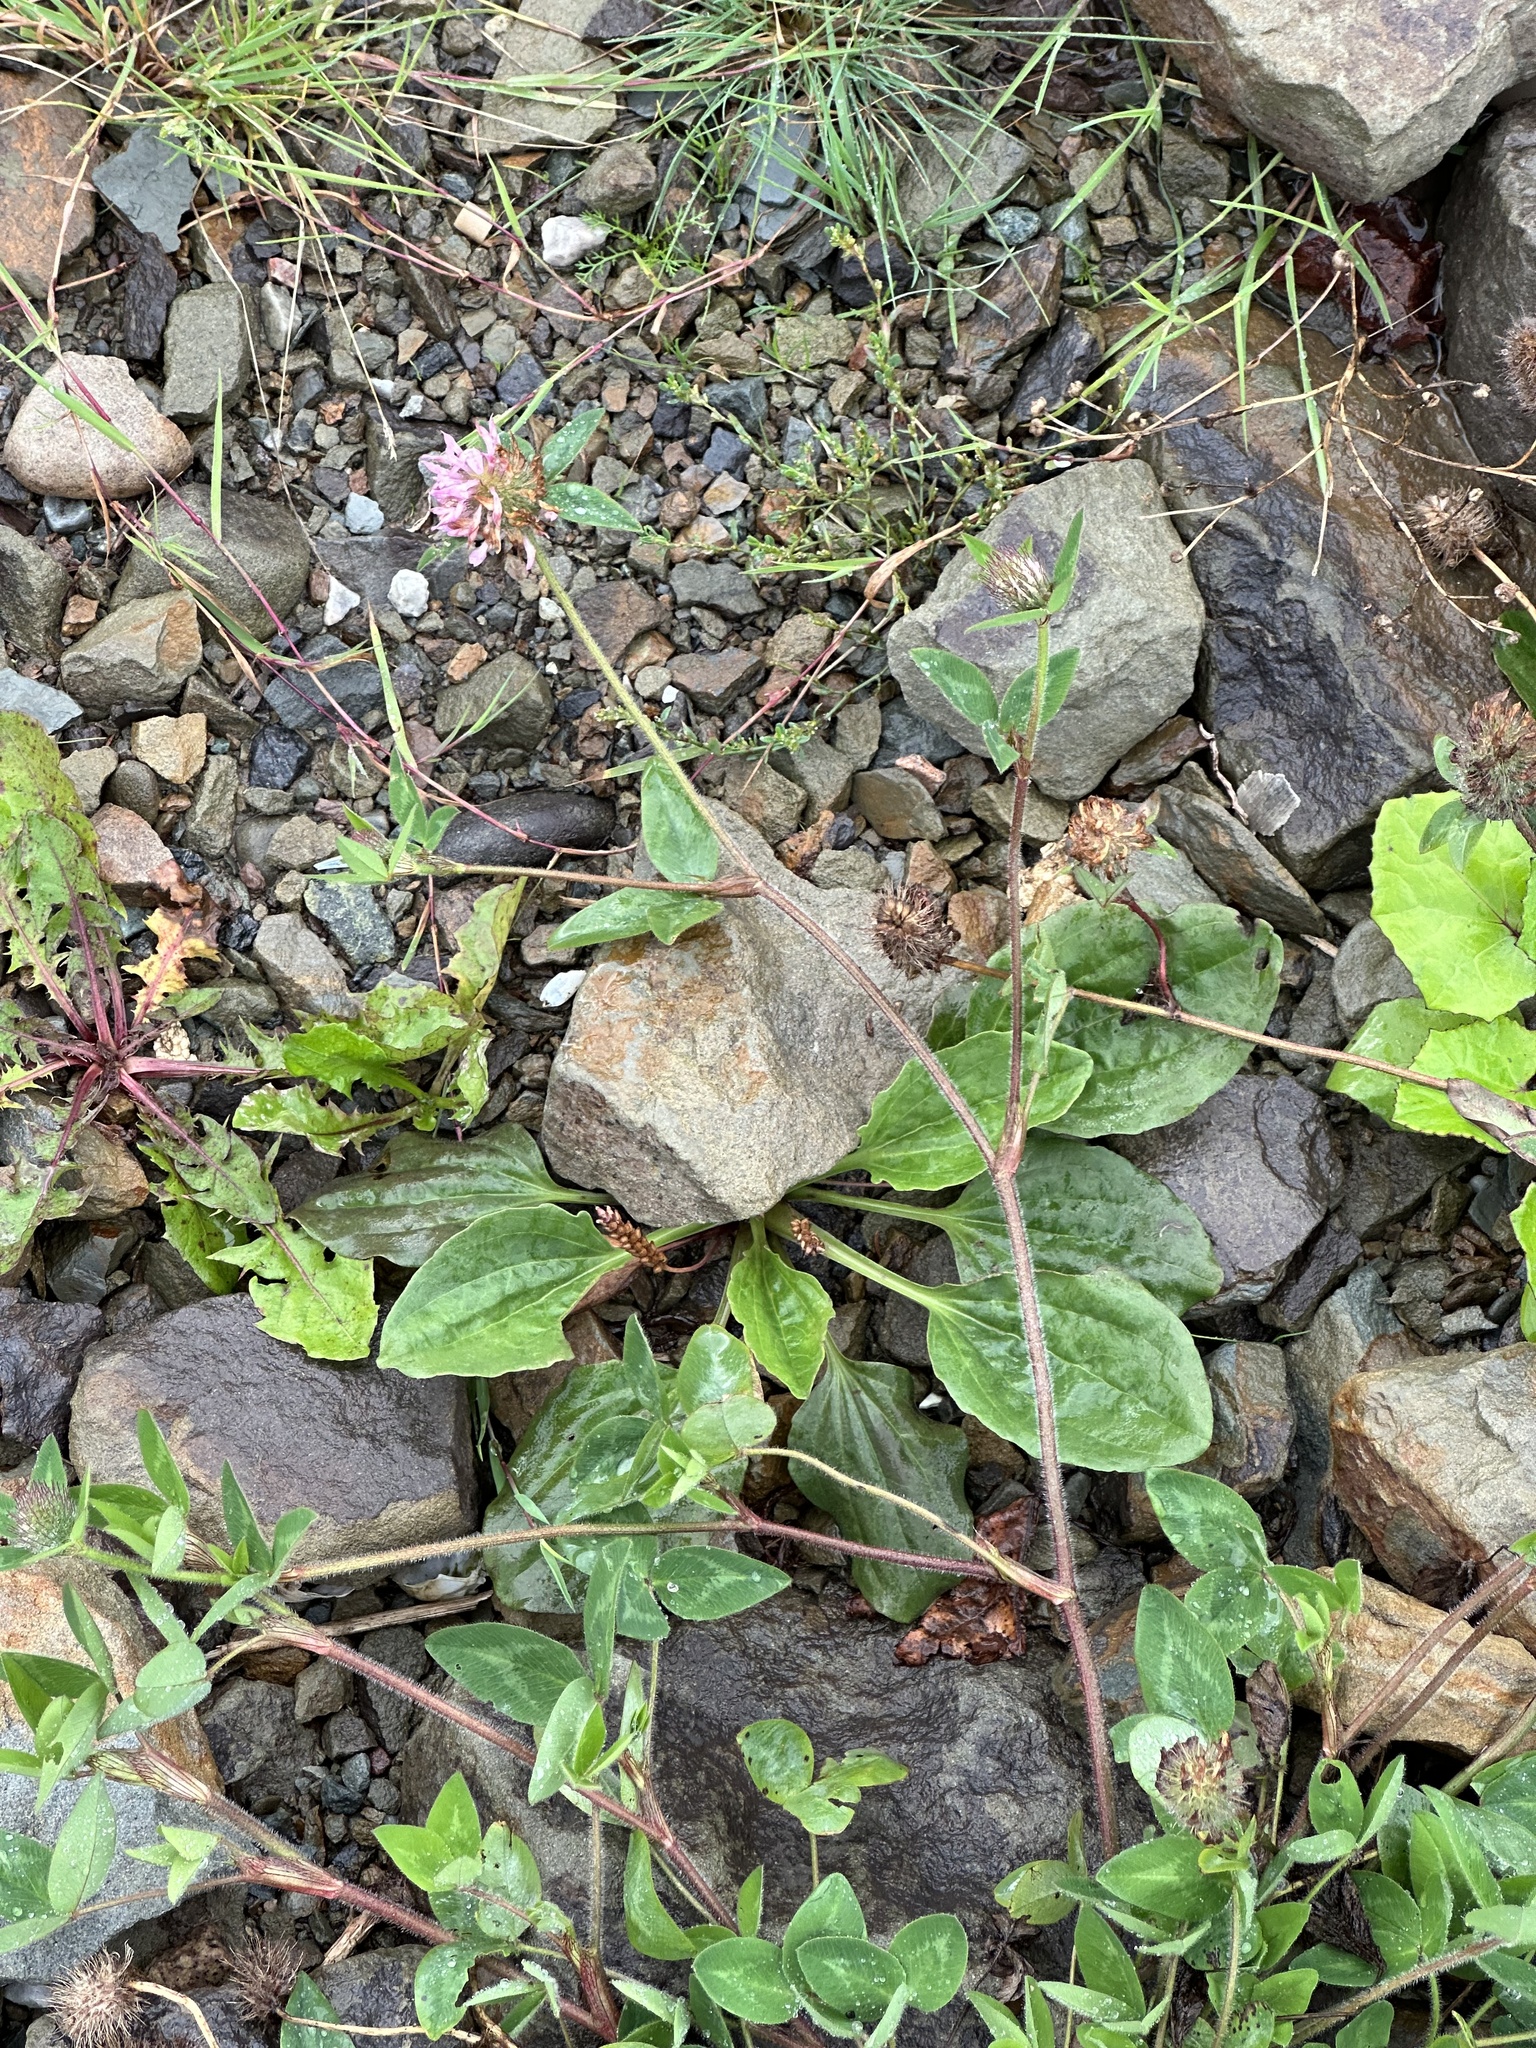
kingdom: Plantae
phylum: Tracheophyta
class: Magnoliopsida
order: Lamiales
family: Plantaginaceae
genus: Plantago
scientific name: Plantago major
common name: Common plantain
